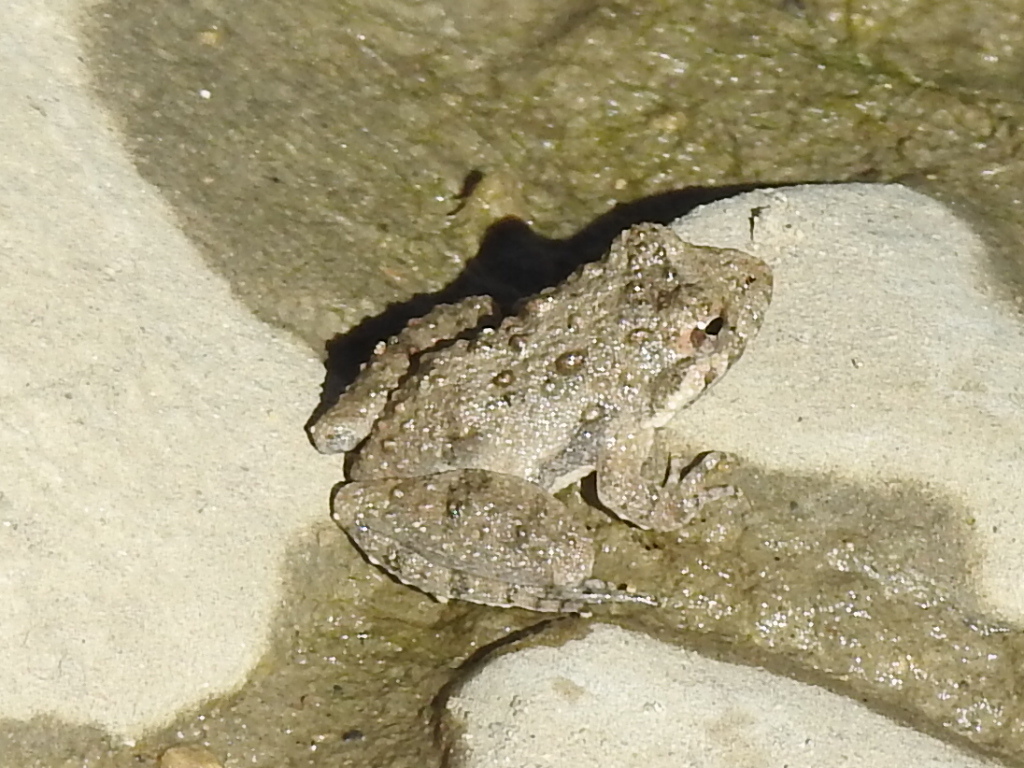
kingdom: Animalia
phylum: Chordata
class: Amphibia
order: Anura
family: Hylidae
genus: Acris
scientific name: Acris blanchardi
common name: Blanchard's cricket frog
